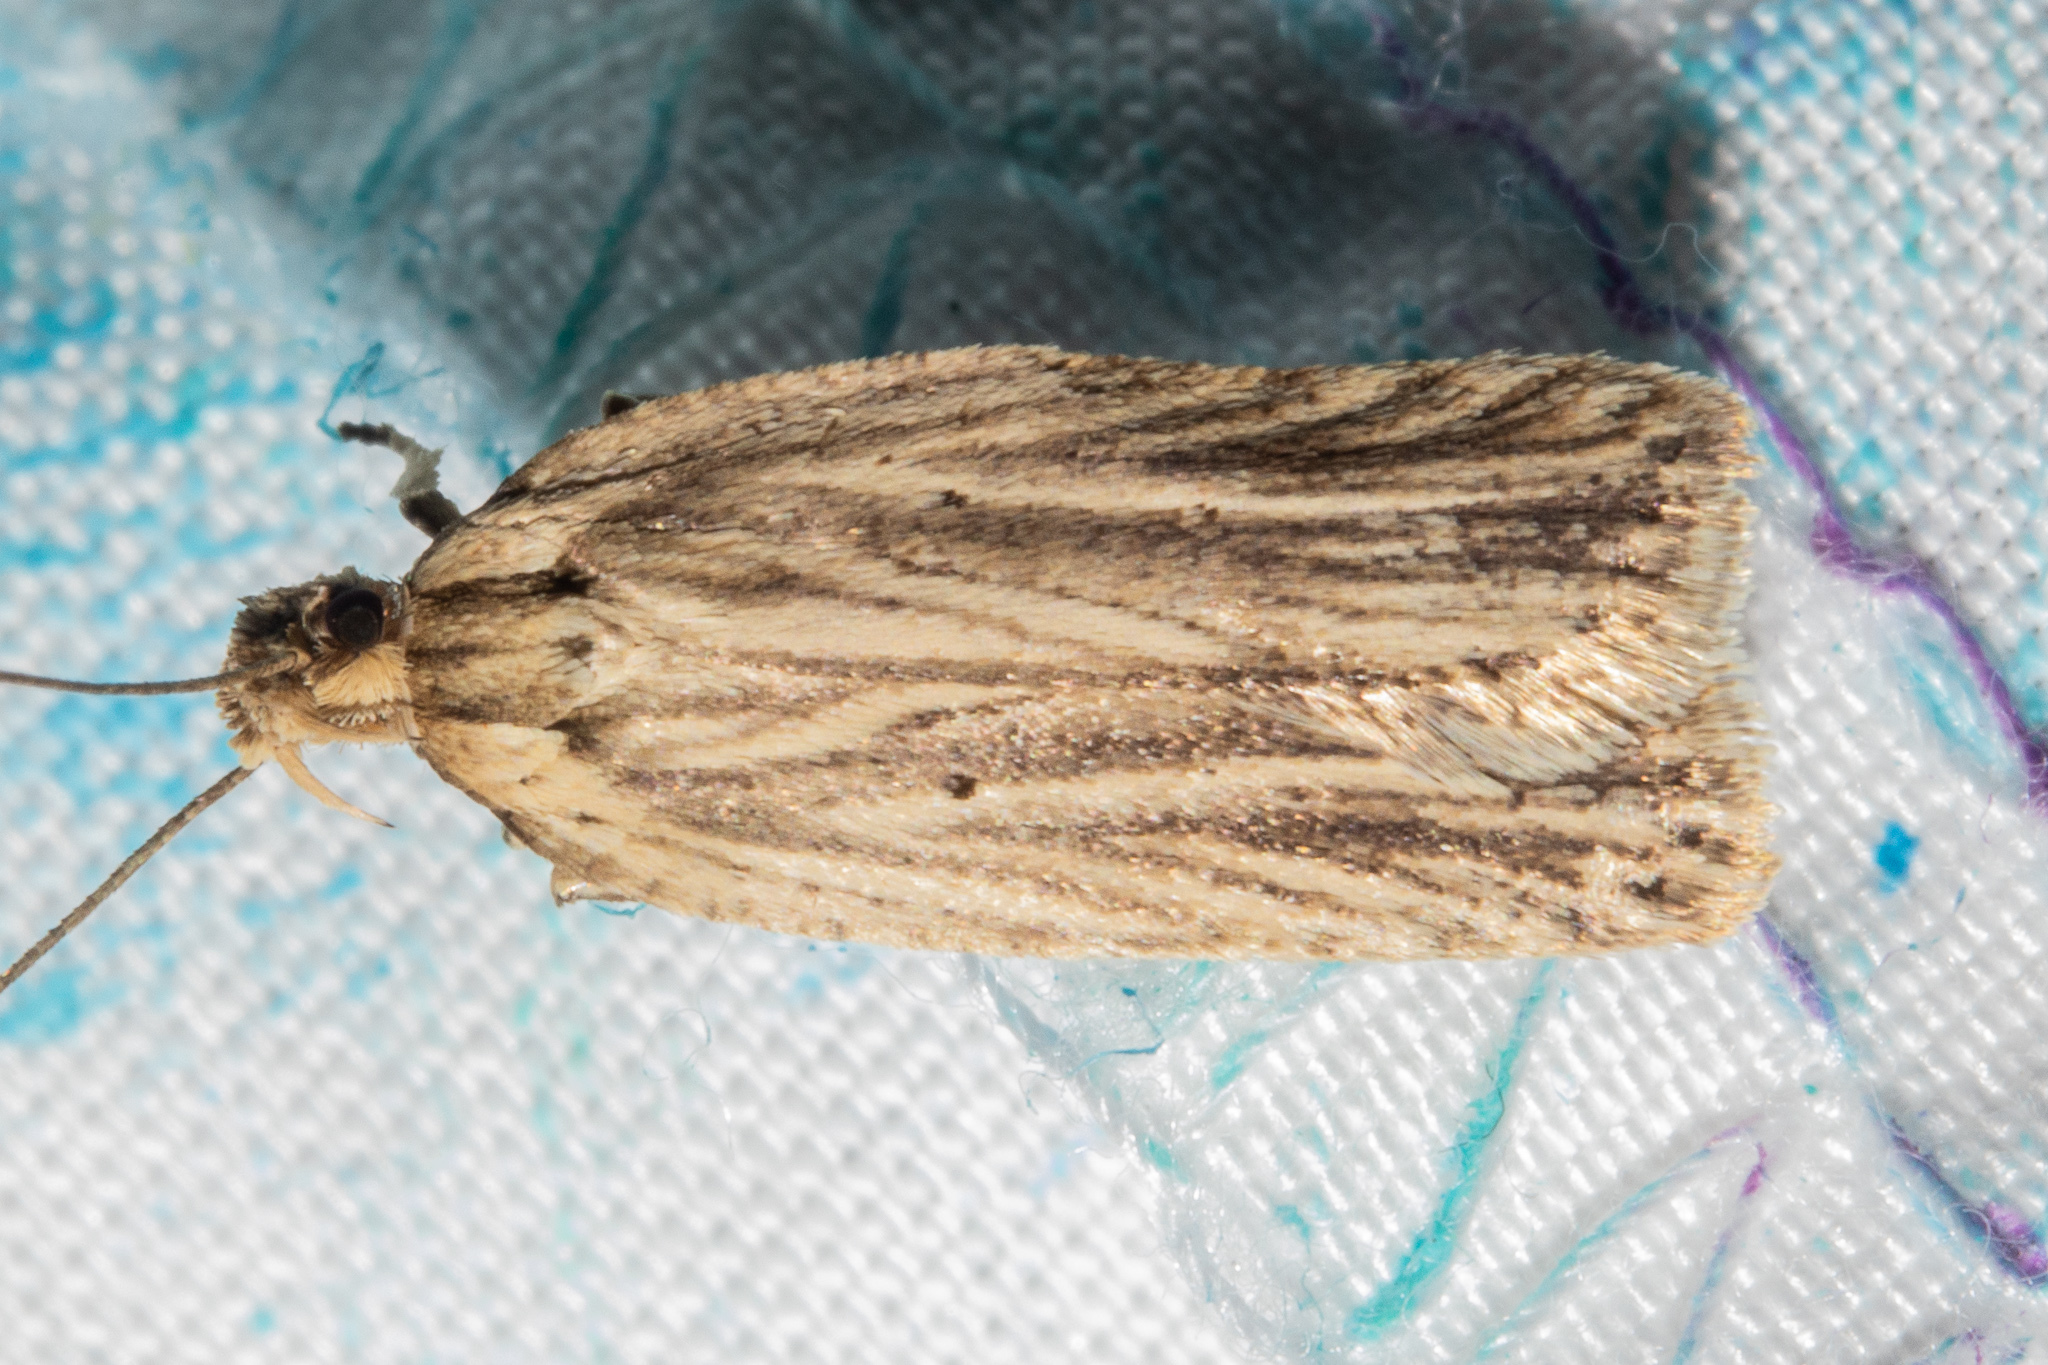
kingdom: Animalia
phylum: Arthropoda
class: Insecta
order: Lepidoptera
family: Depressariidae
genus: Agonopterix
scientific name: Agonopterix
